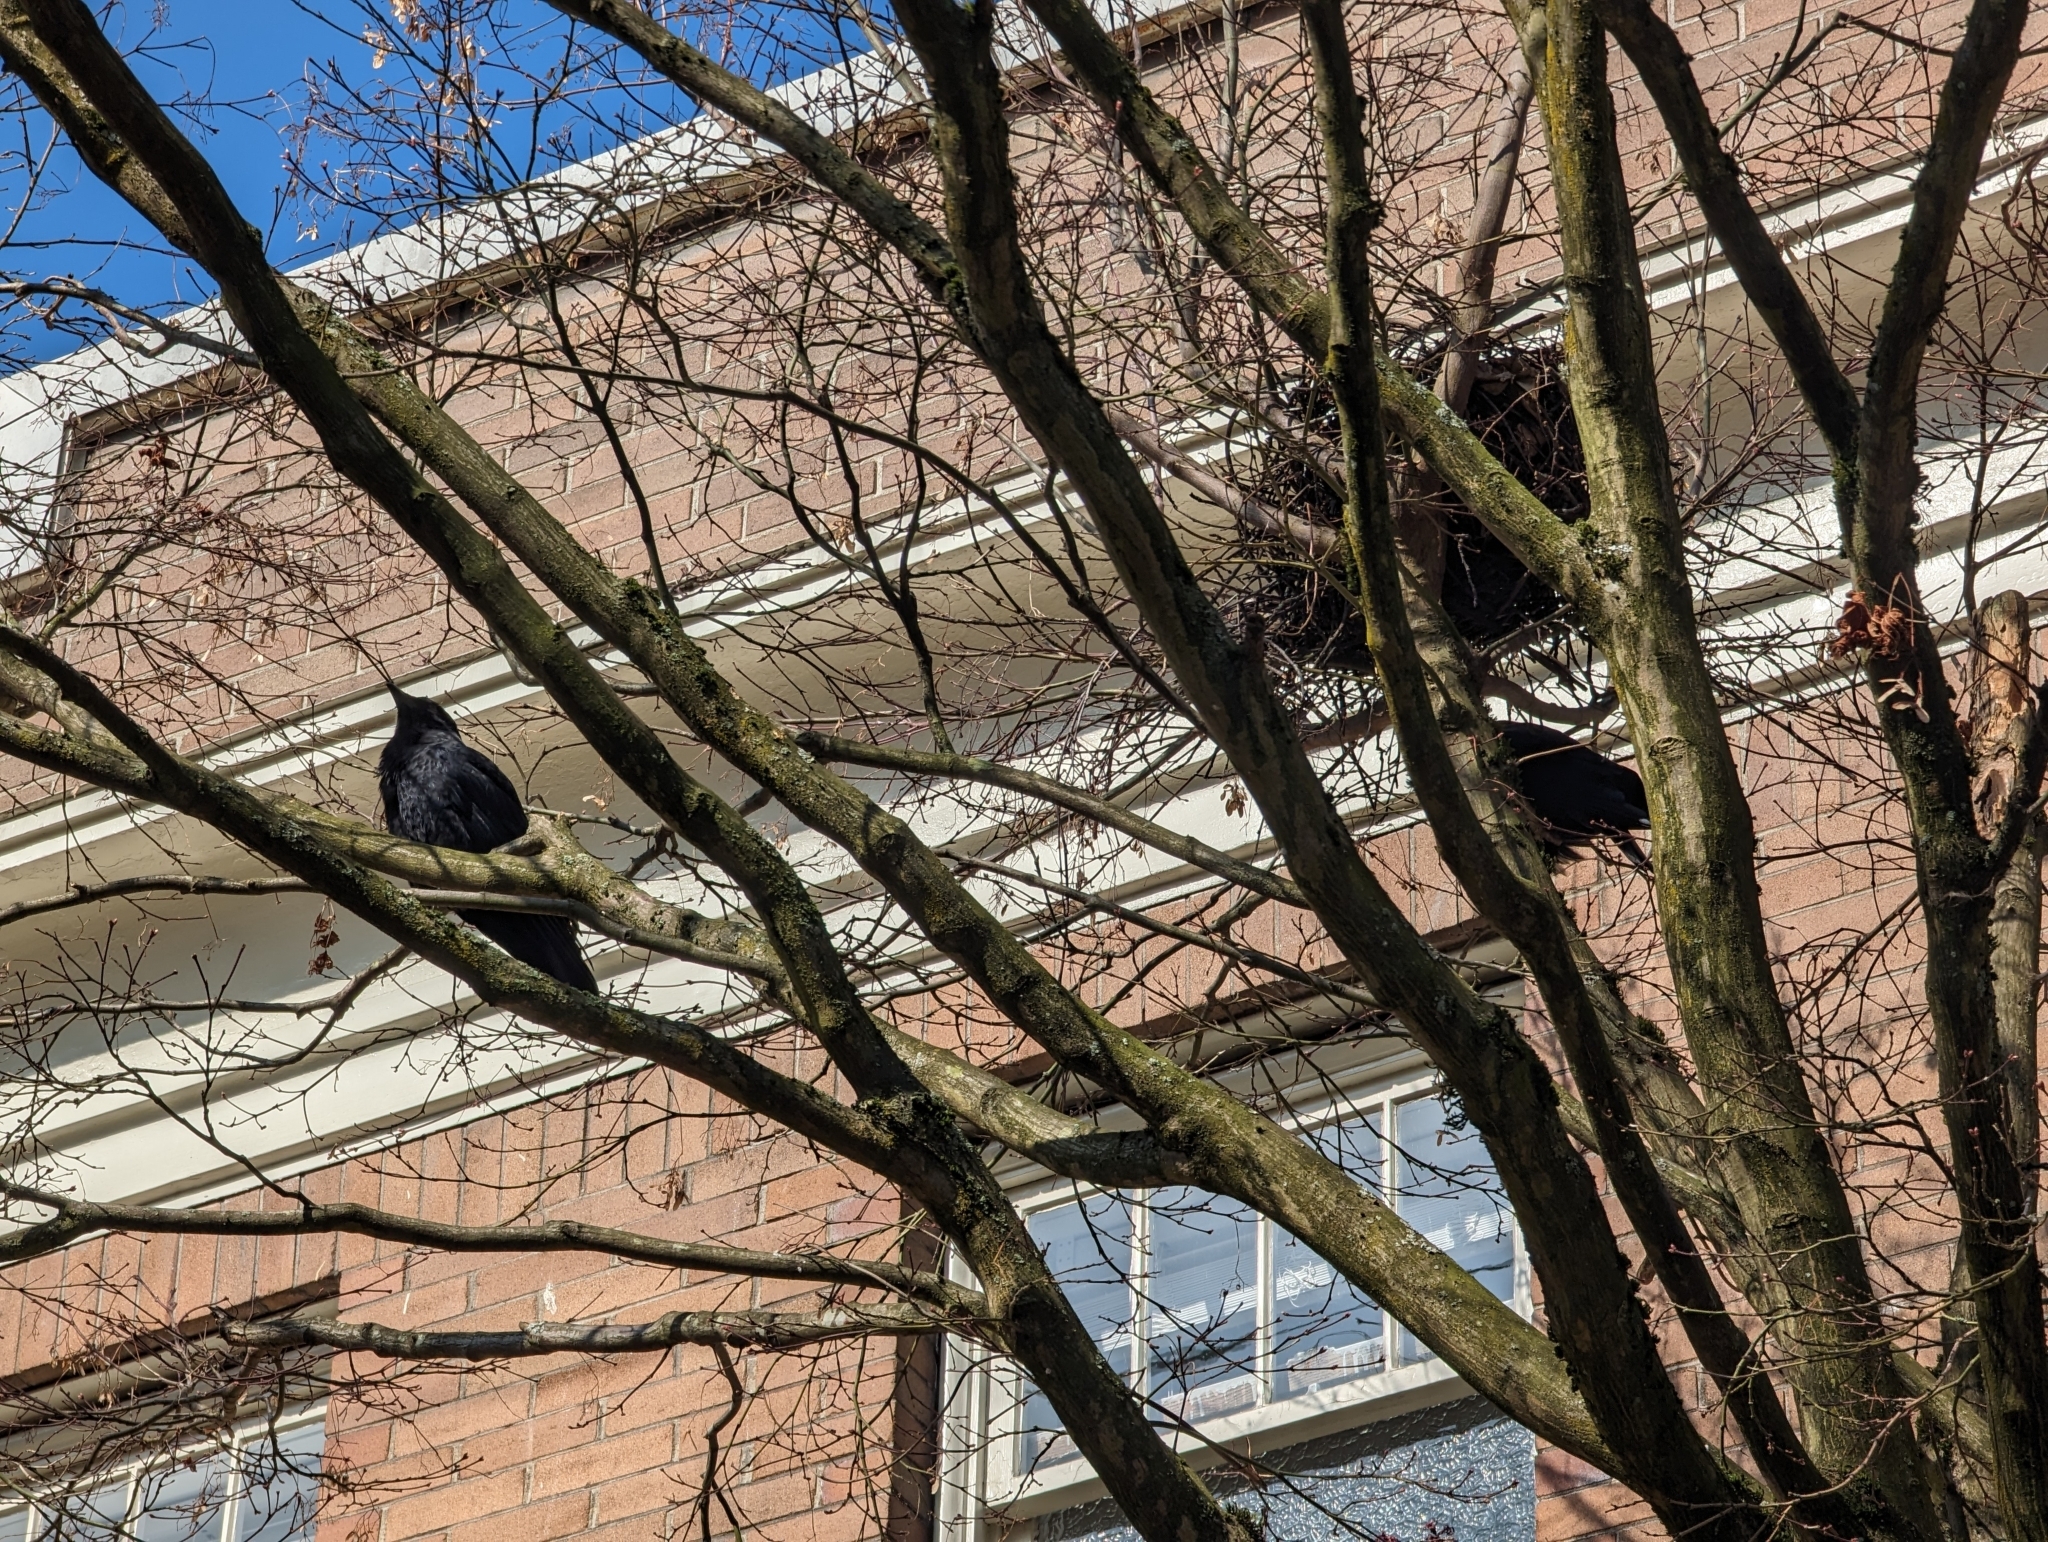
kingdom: Animalia
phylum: Chordata
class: Aves
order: Passeriformes
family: Corvidae
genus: Corvus
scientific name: Corvus brachyrhynchos
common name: American crow
